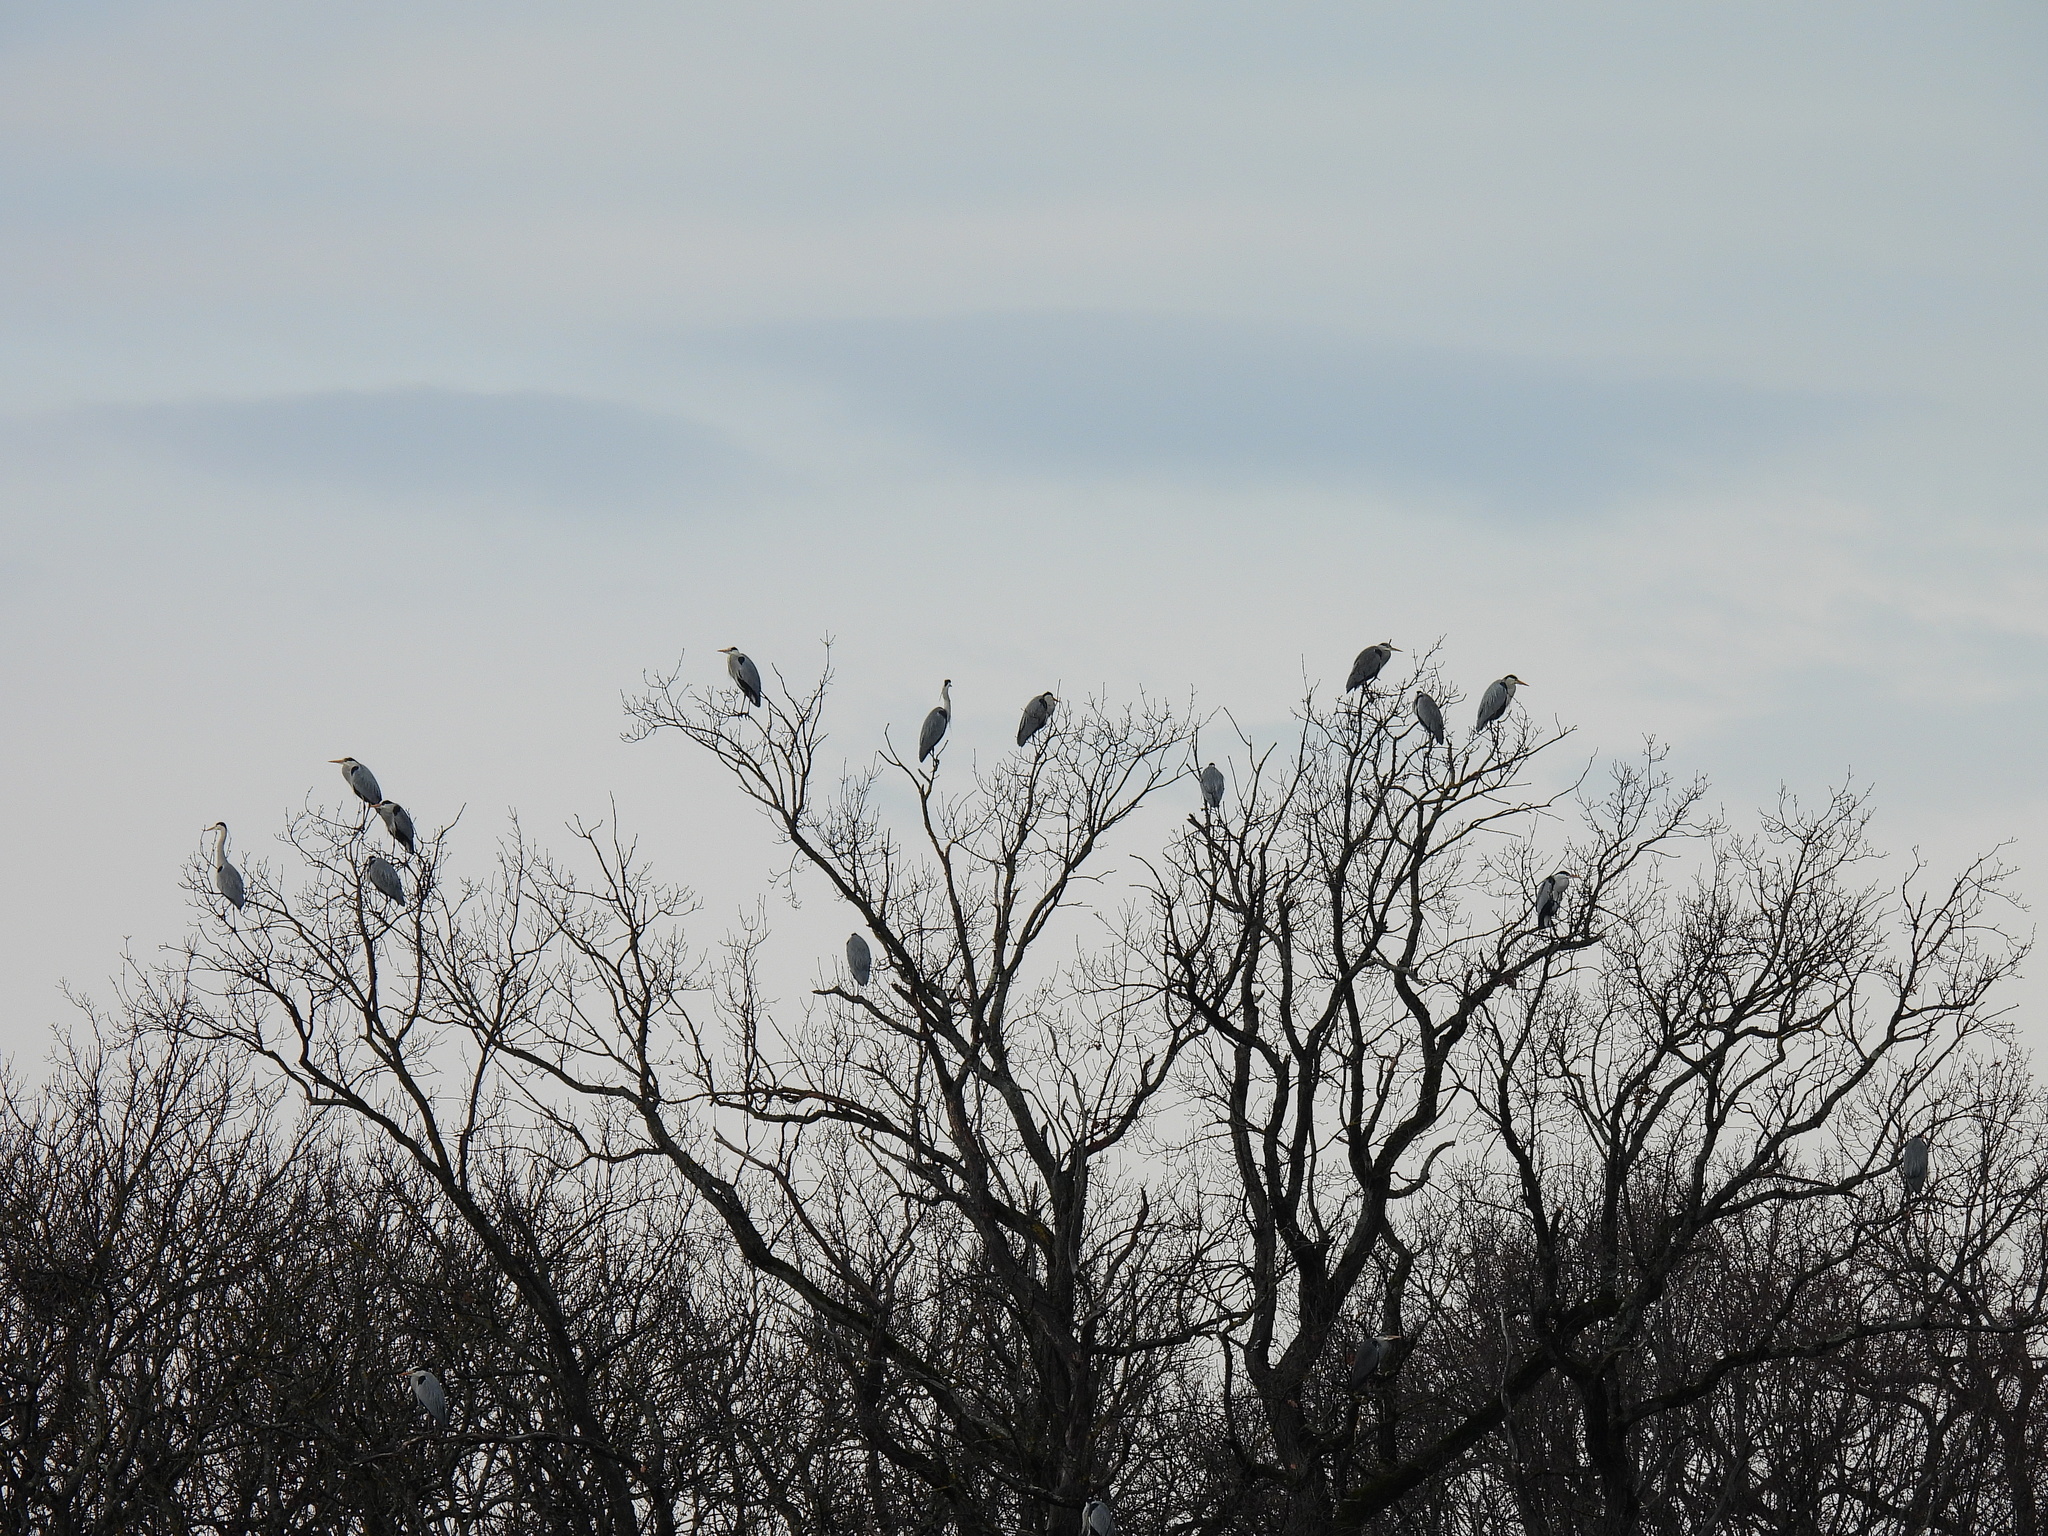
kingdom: Animalia
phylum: Chordata
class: Aves
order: Pelecaniformes
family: Ardeidae
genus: Ardea
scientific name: Ardea cinerea
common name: Grey heron
